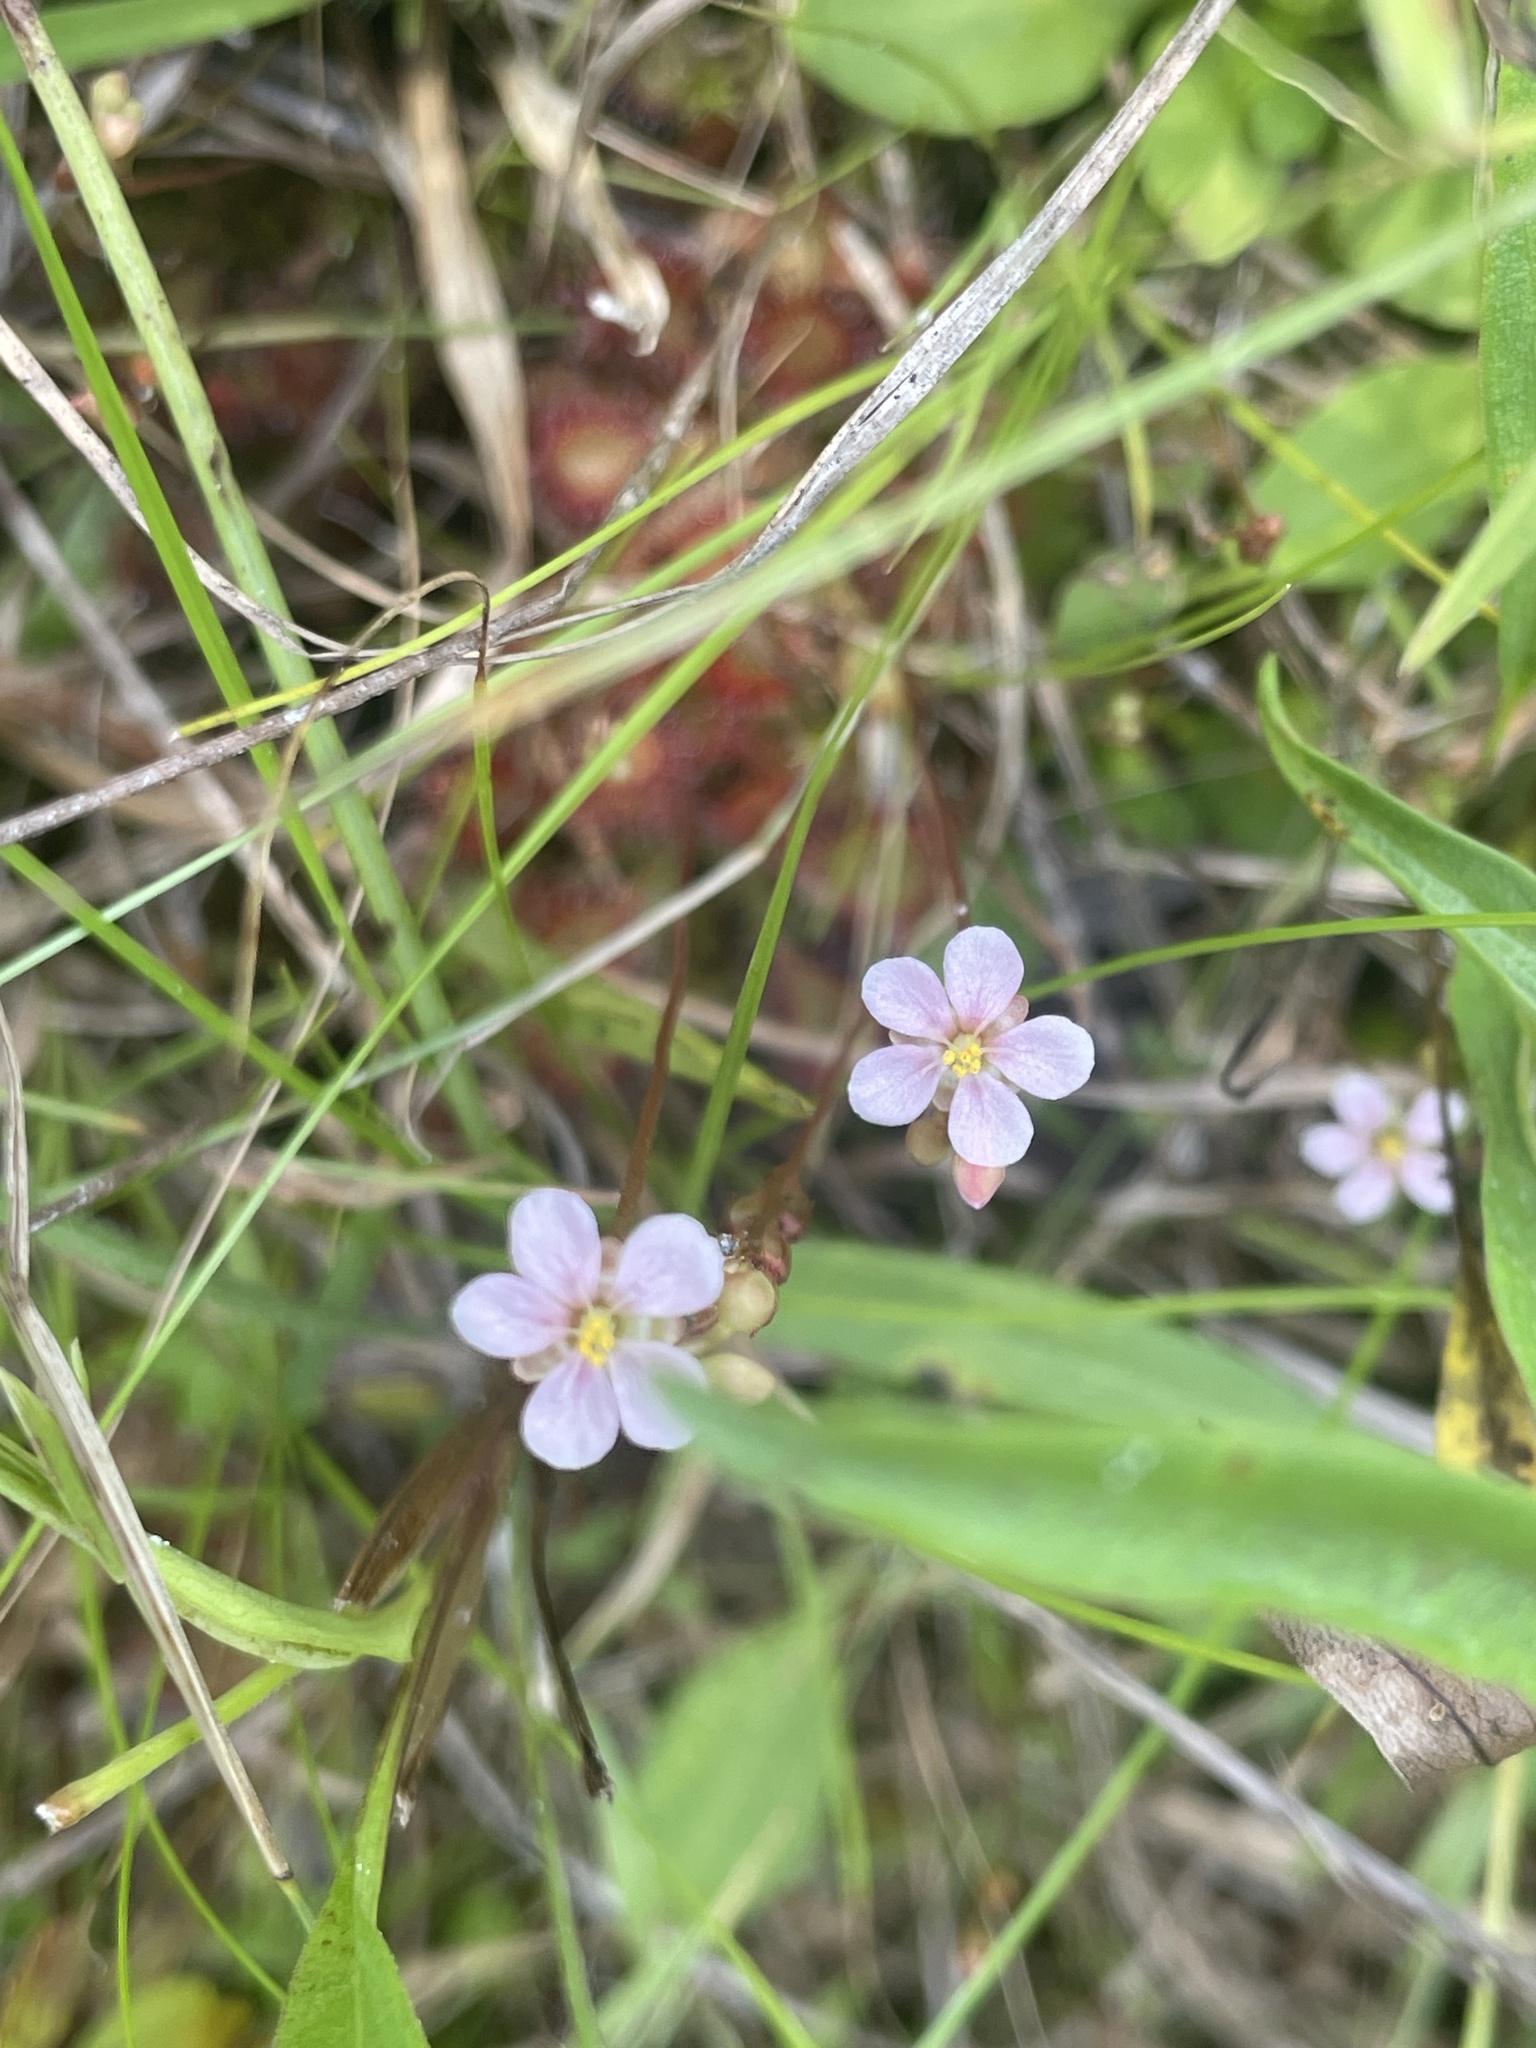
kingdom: Plantae
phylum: Tracheophyta
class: Magnoliopsida
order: Caryophyllales
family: Droseraceae
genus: Drosera
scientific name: Drosera capillaris
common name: Pink sundew
